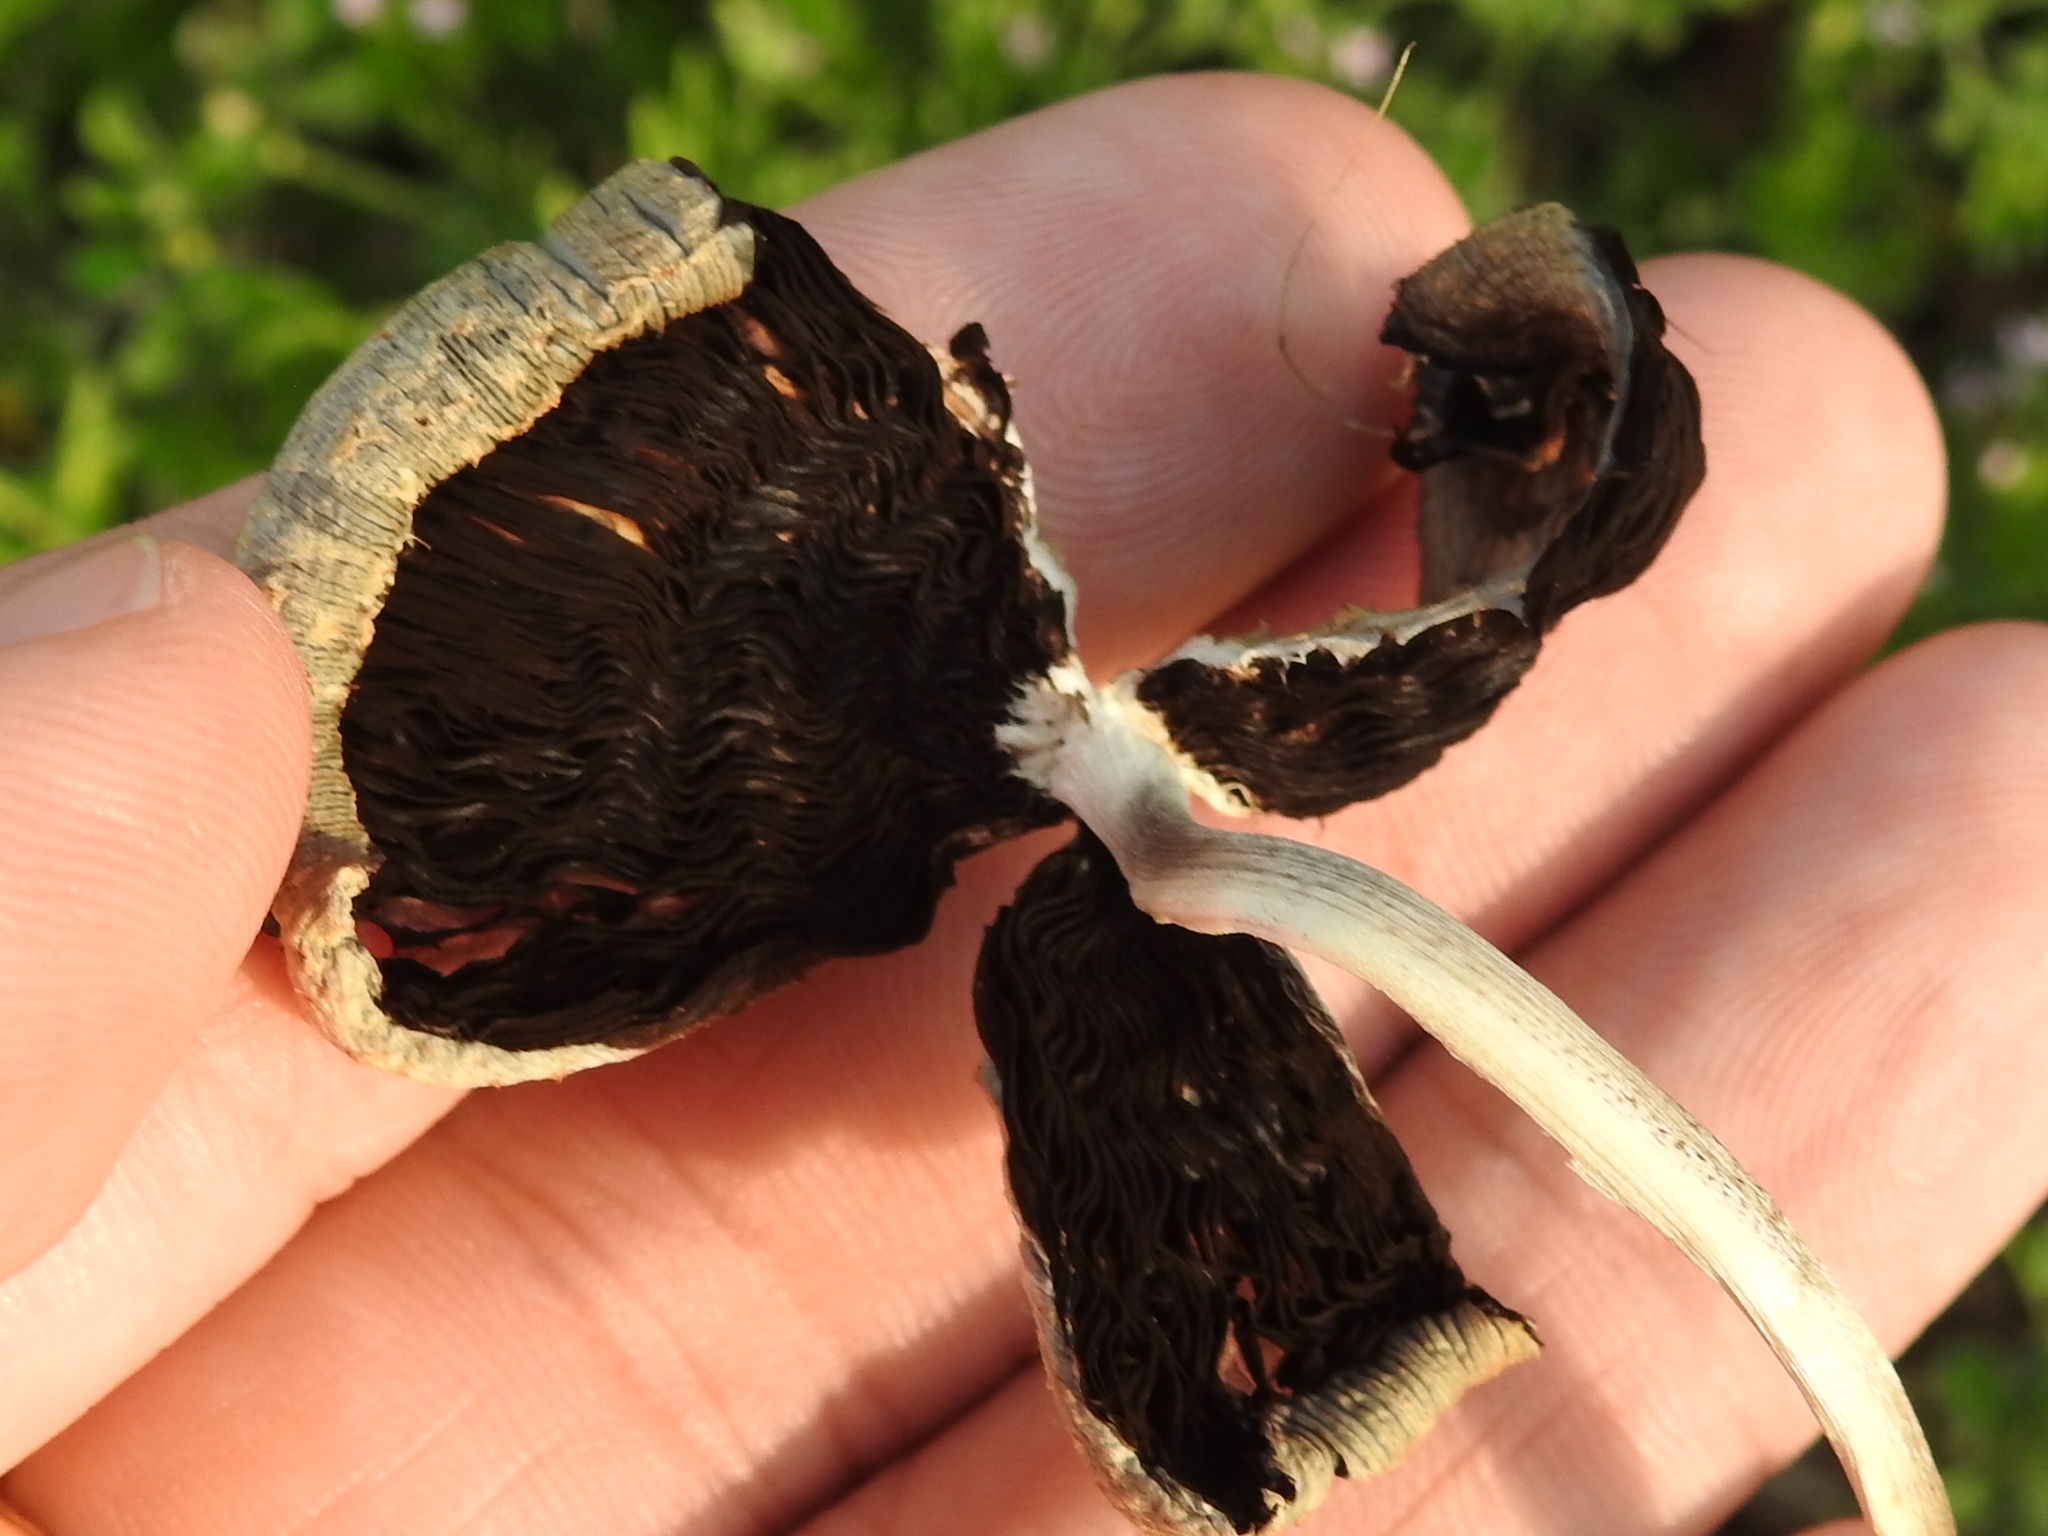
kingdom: Fungi
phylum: Basidiomycota
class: Agaricomycetes
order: Agaricales
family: Psathyrellaceae
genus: Coprinopsis
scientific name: Coprinopsis variegata
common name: Scaly ink cap
